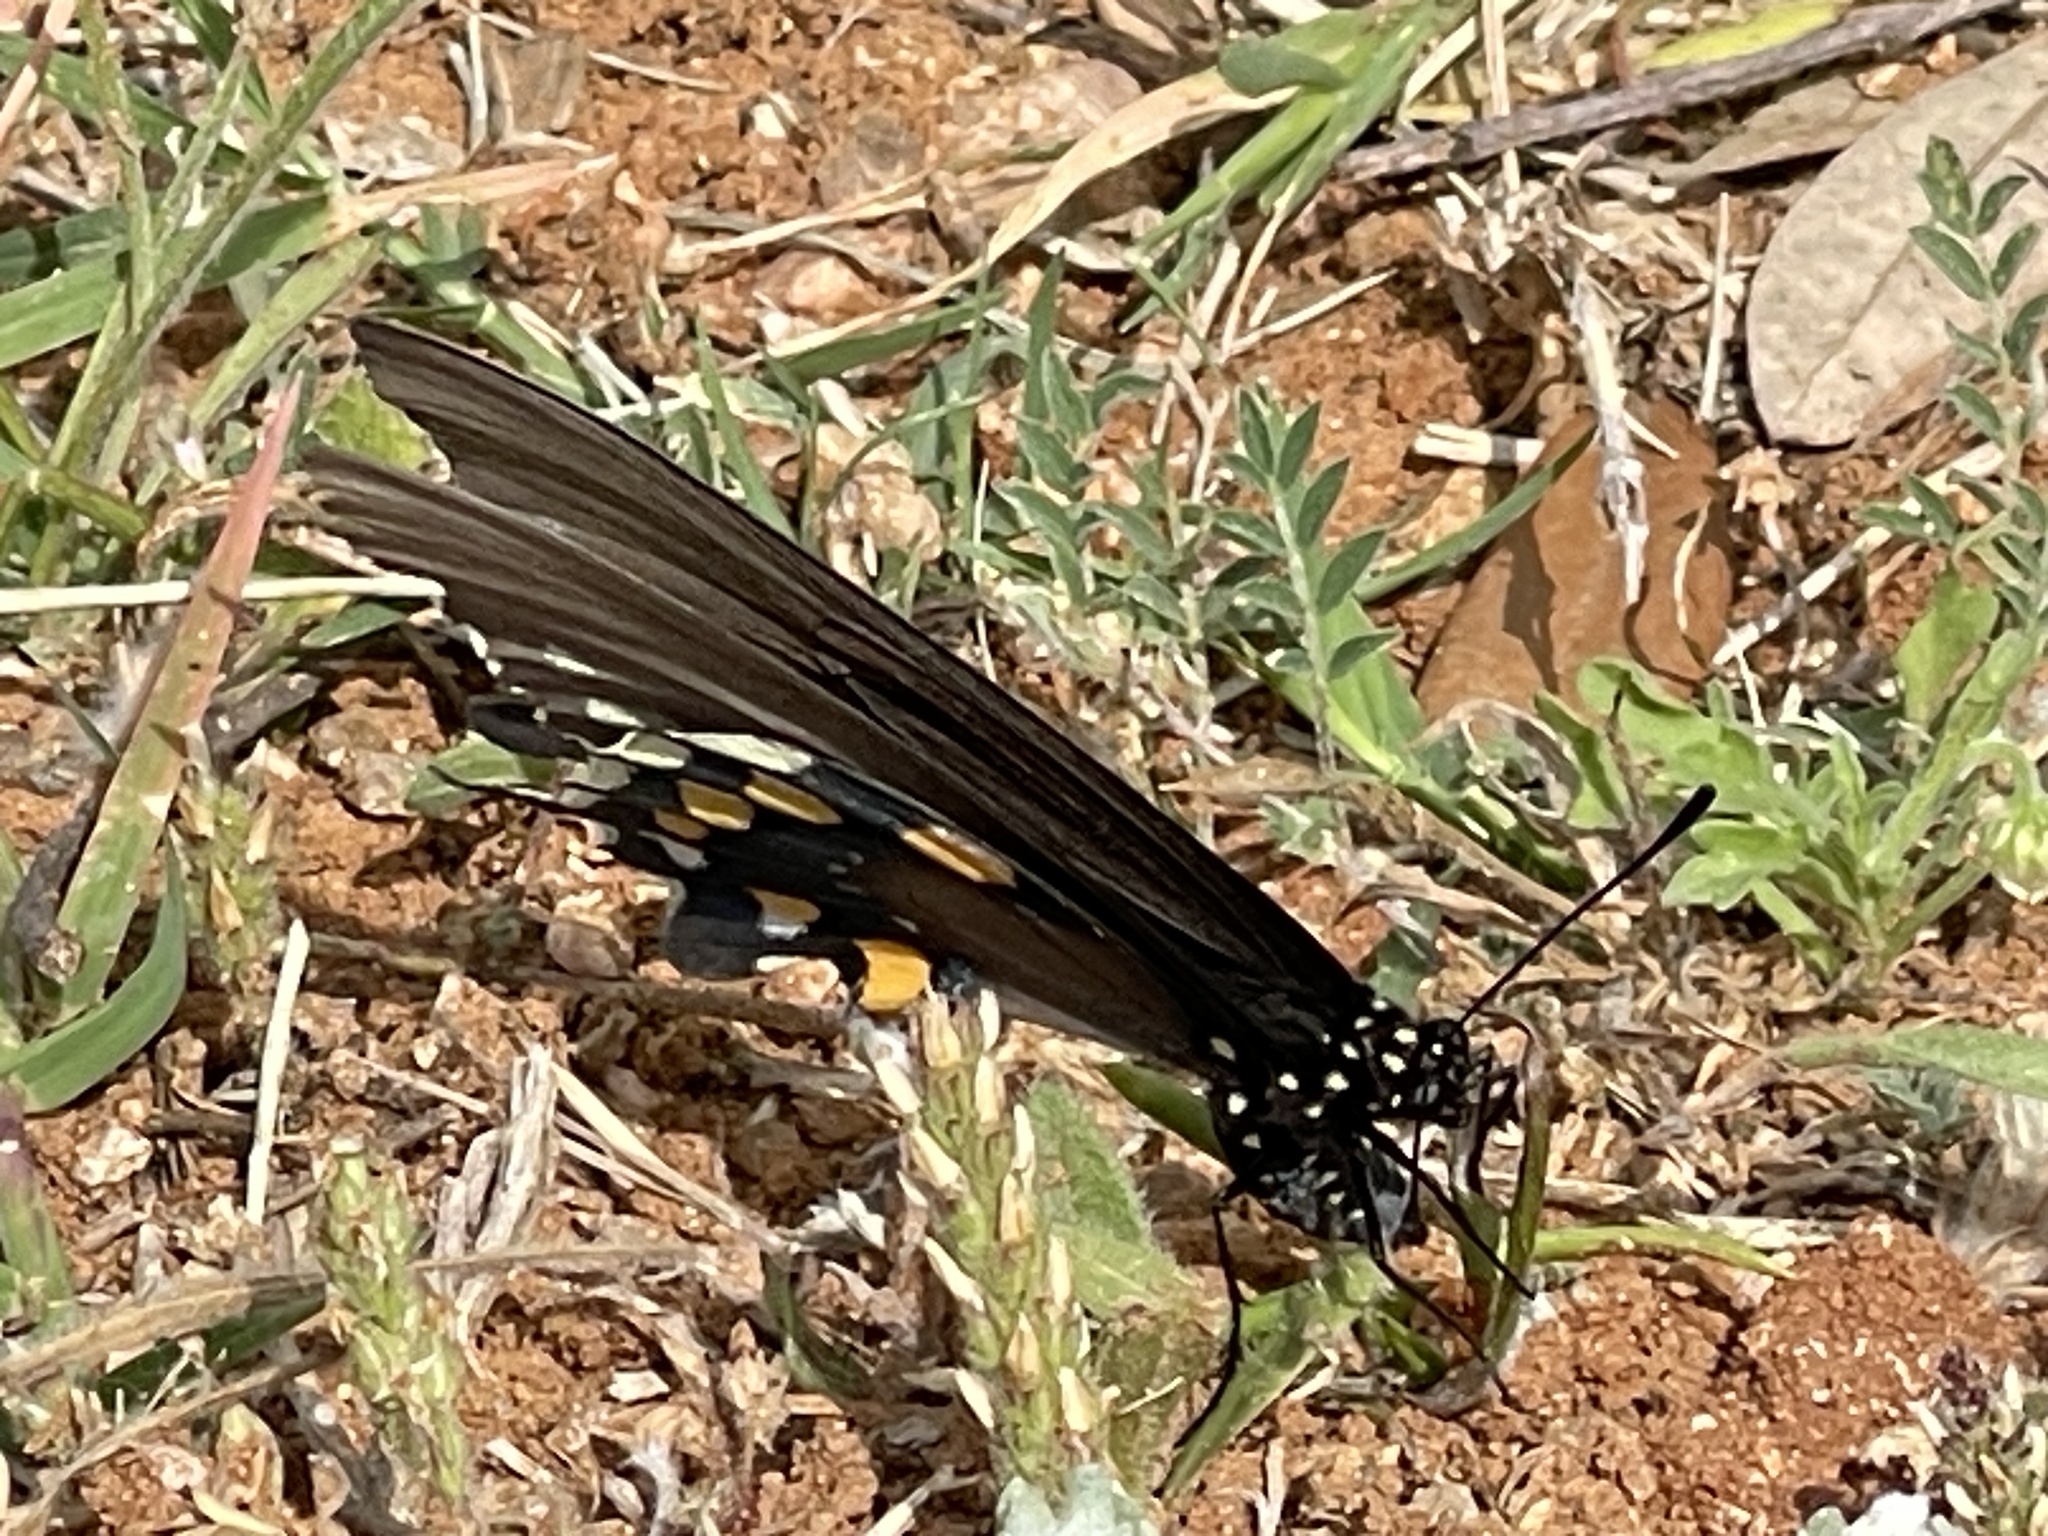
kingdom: Animalia
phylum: Arthropoda
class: Insecta
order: Lepidoptera
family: Papilionidae
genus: Battus
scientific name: Battus philenor
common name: Pipevine swallowtail
